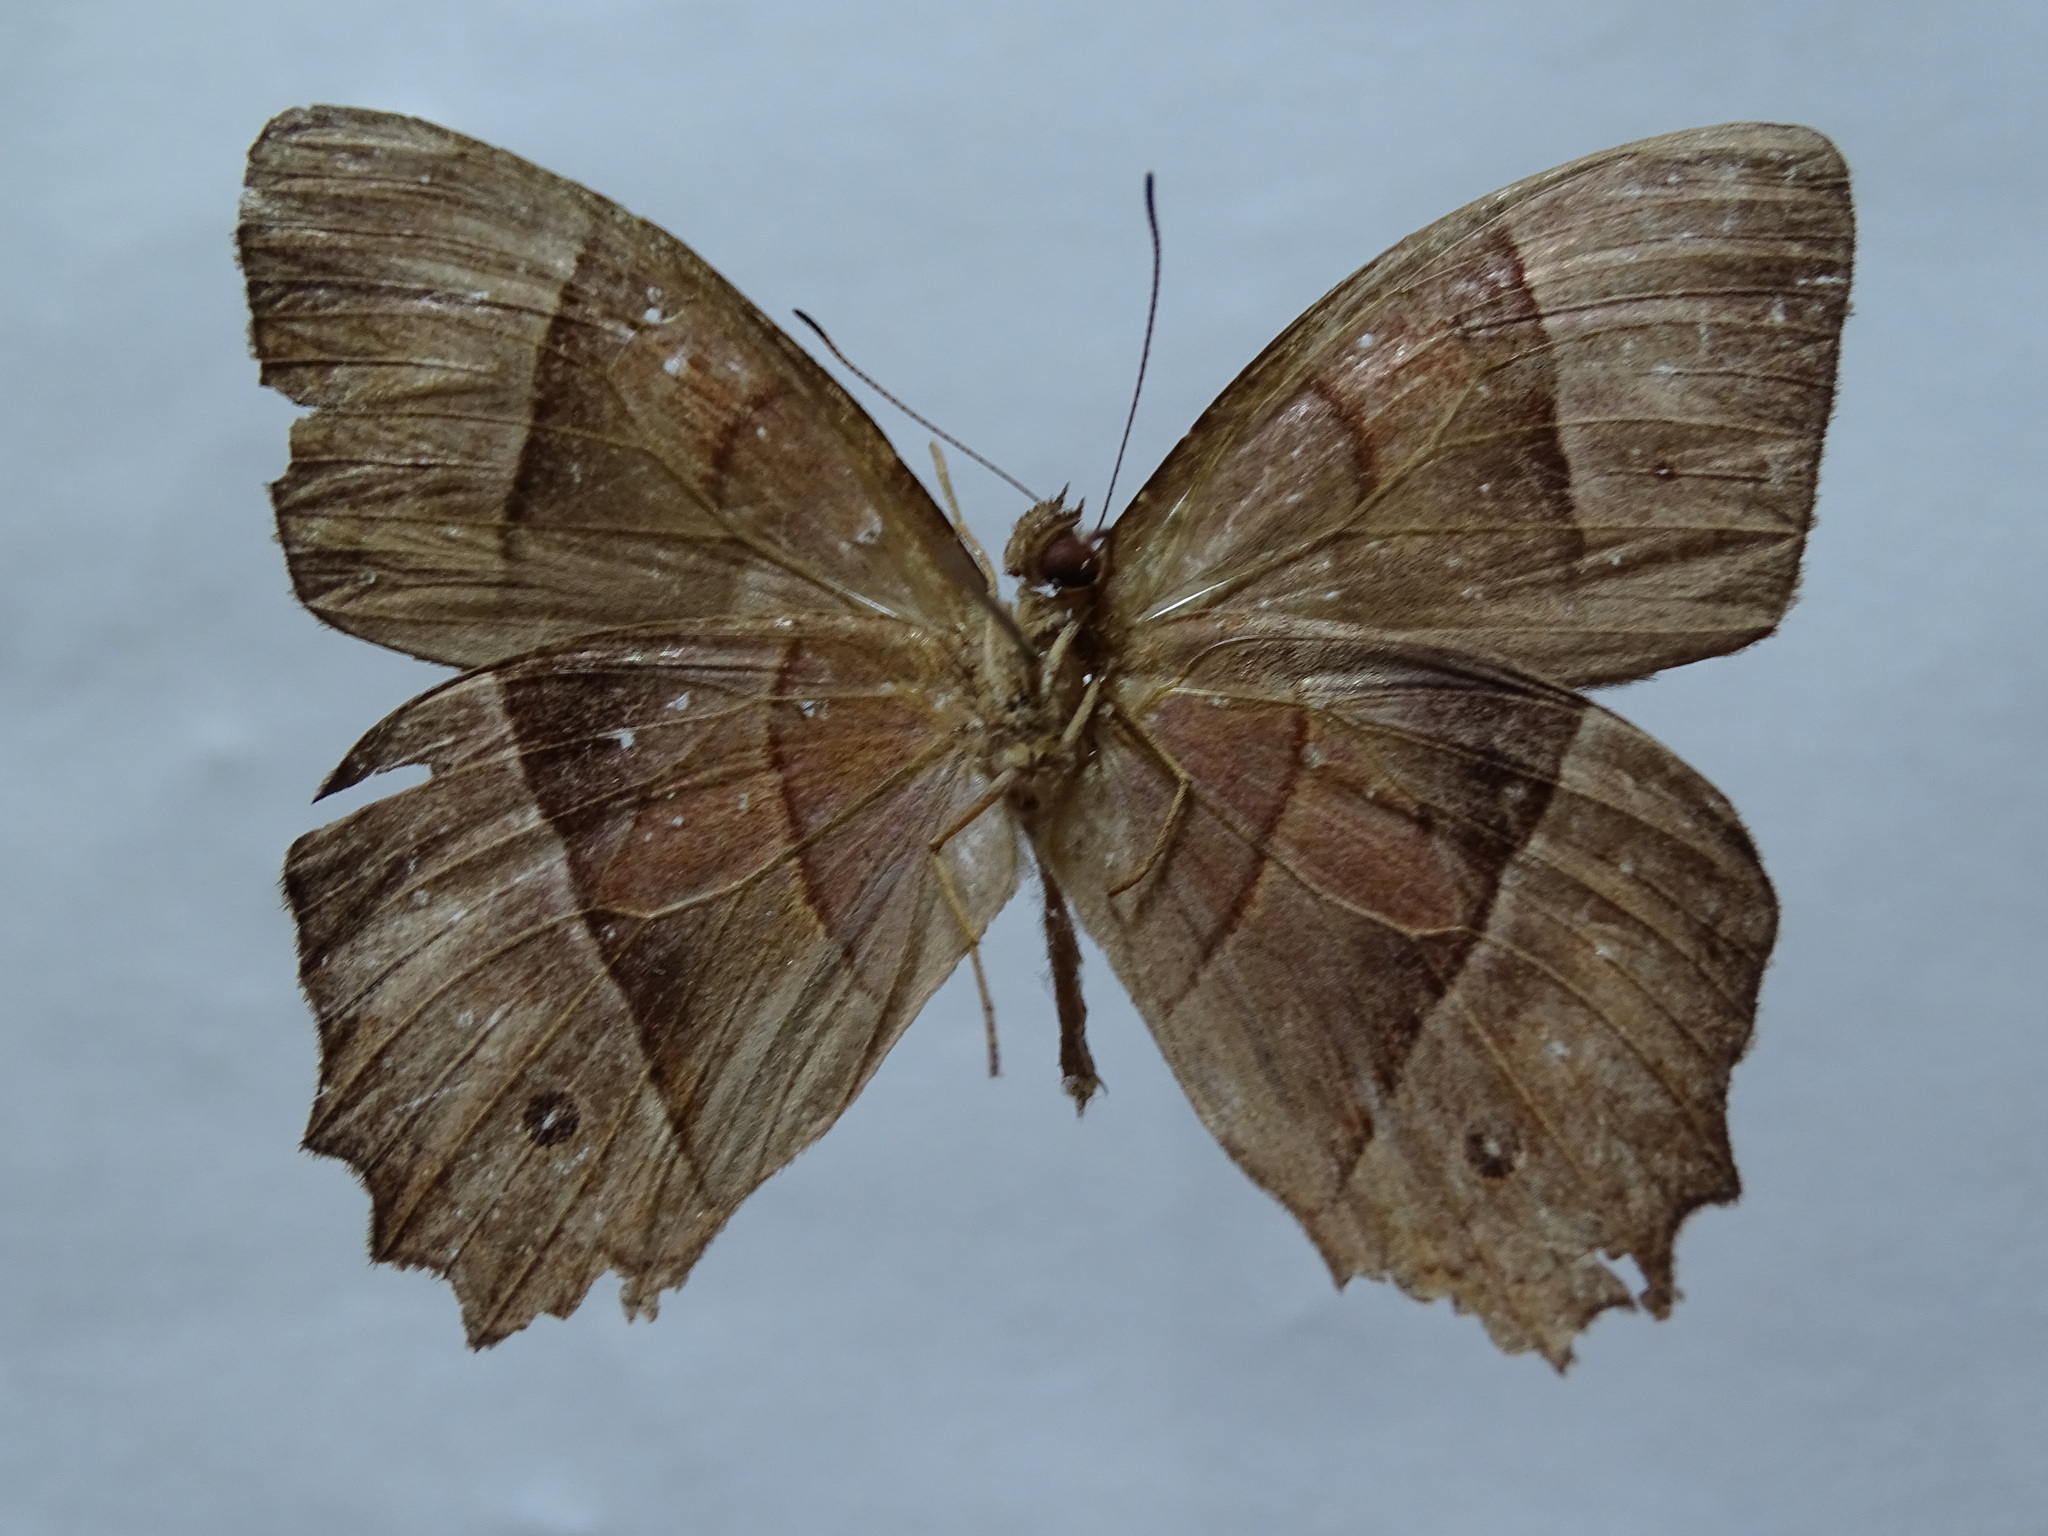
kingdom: Animalia
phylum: Arthropoda
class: Insecta
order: Lepidoptera
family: Nymphalidae
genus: Taygetis
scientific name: Taygetis salvini
